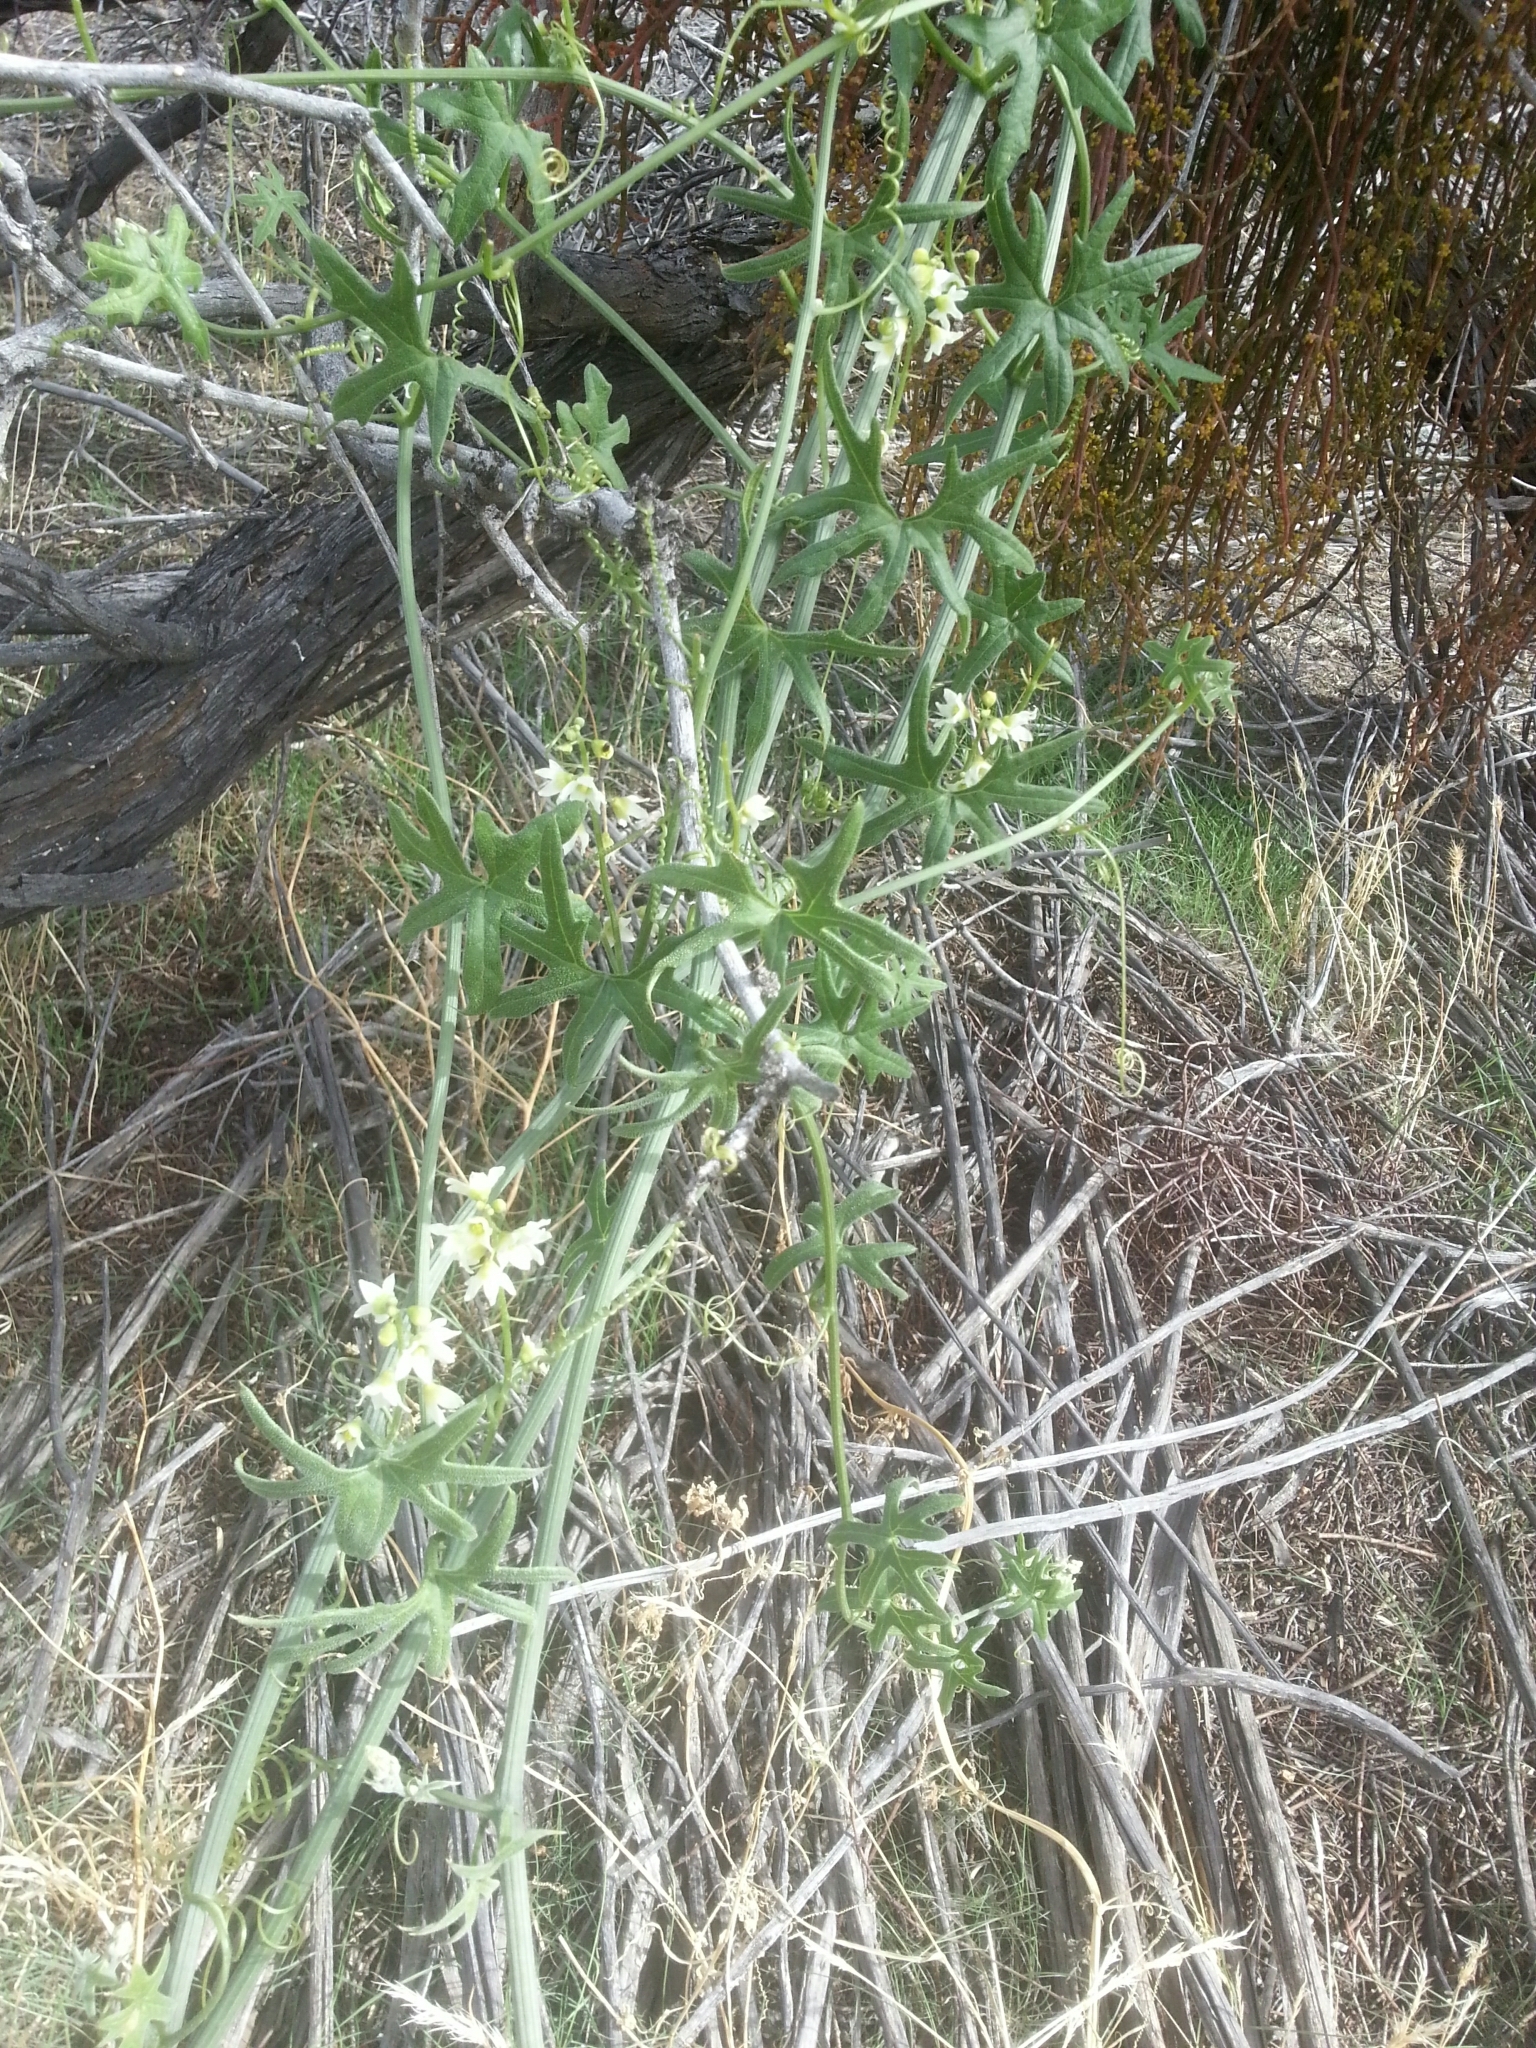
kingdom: Plantae
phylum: Tracheophyta
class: Magnoliopsida
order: Cucurbitales
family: Cucurbitaceae
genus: Marah
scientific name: Marah macrocarpa
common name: Cucamonga manroot
